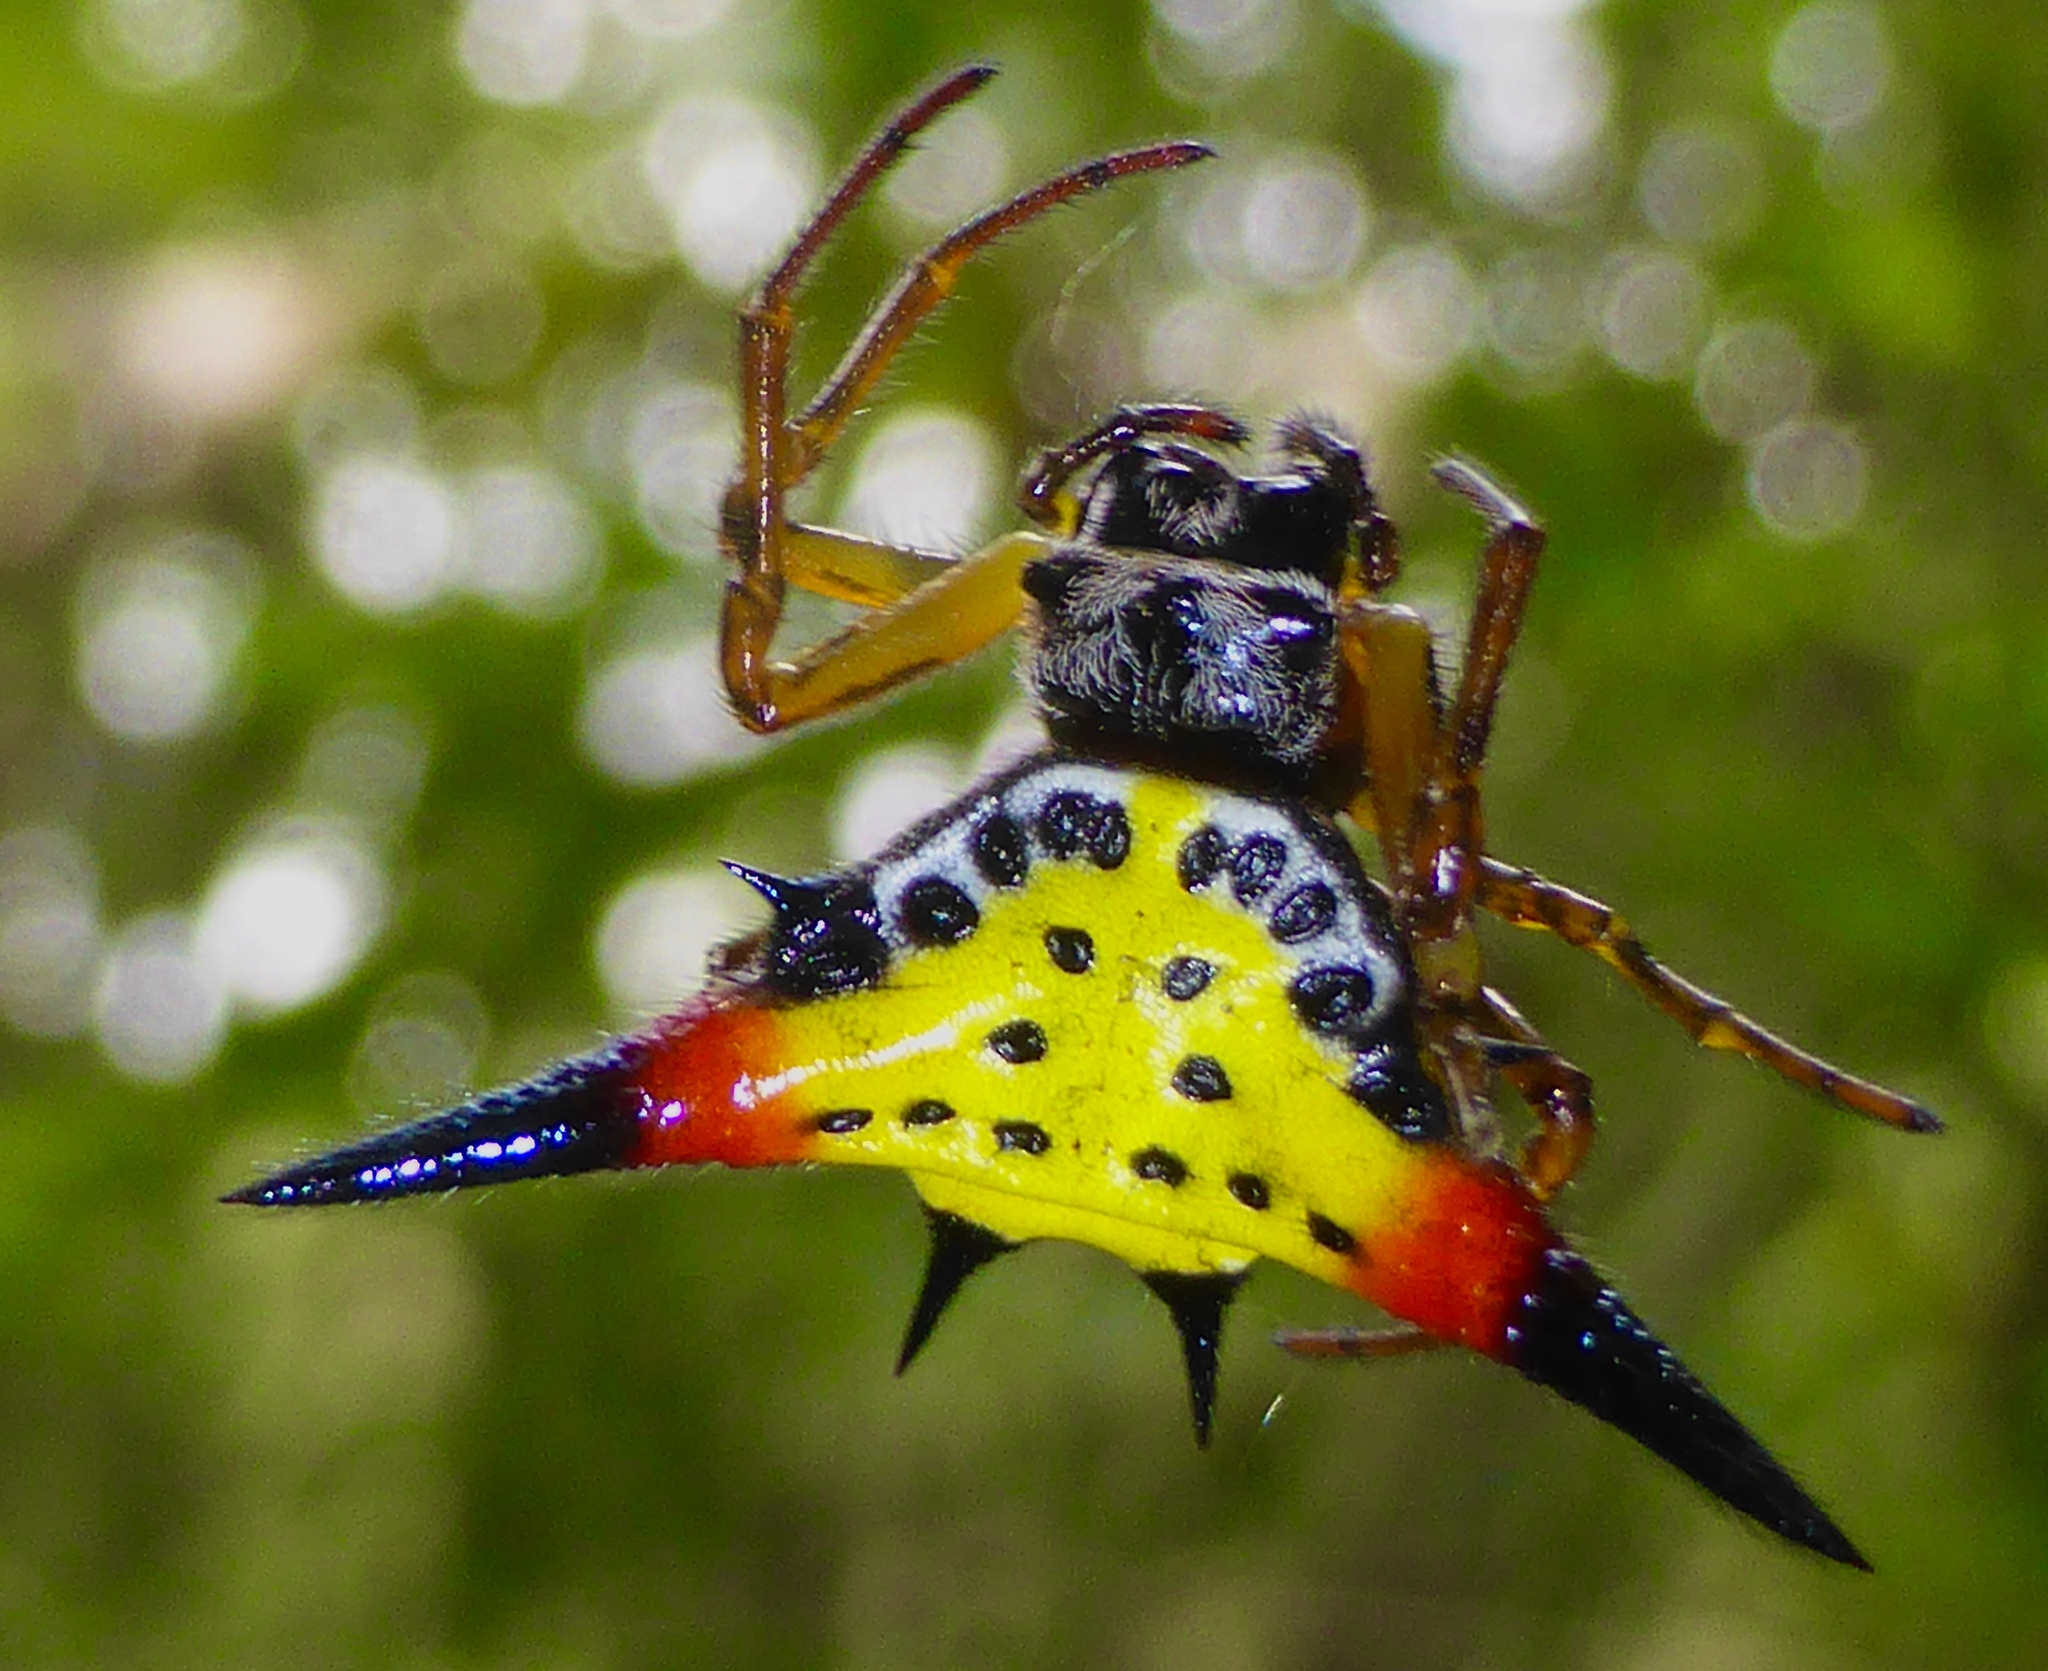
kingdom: Animalia
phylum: Arthropoda
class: Arachnida
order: Araneae
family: Araneidae
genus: Macracantha
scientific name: Macracantha hasselti
